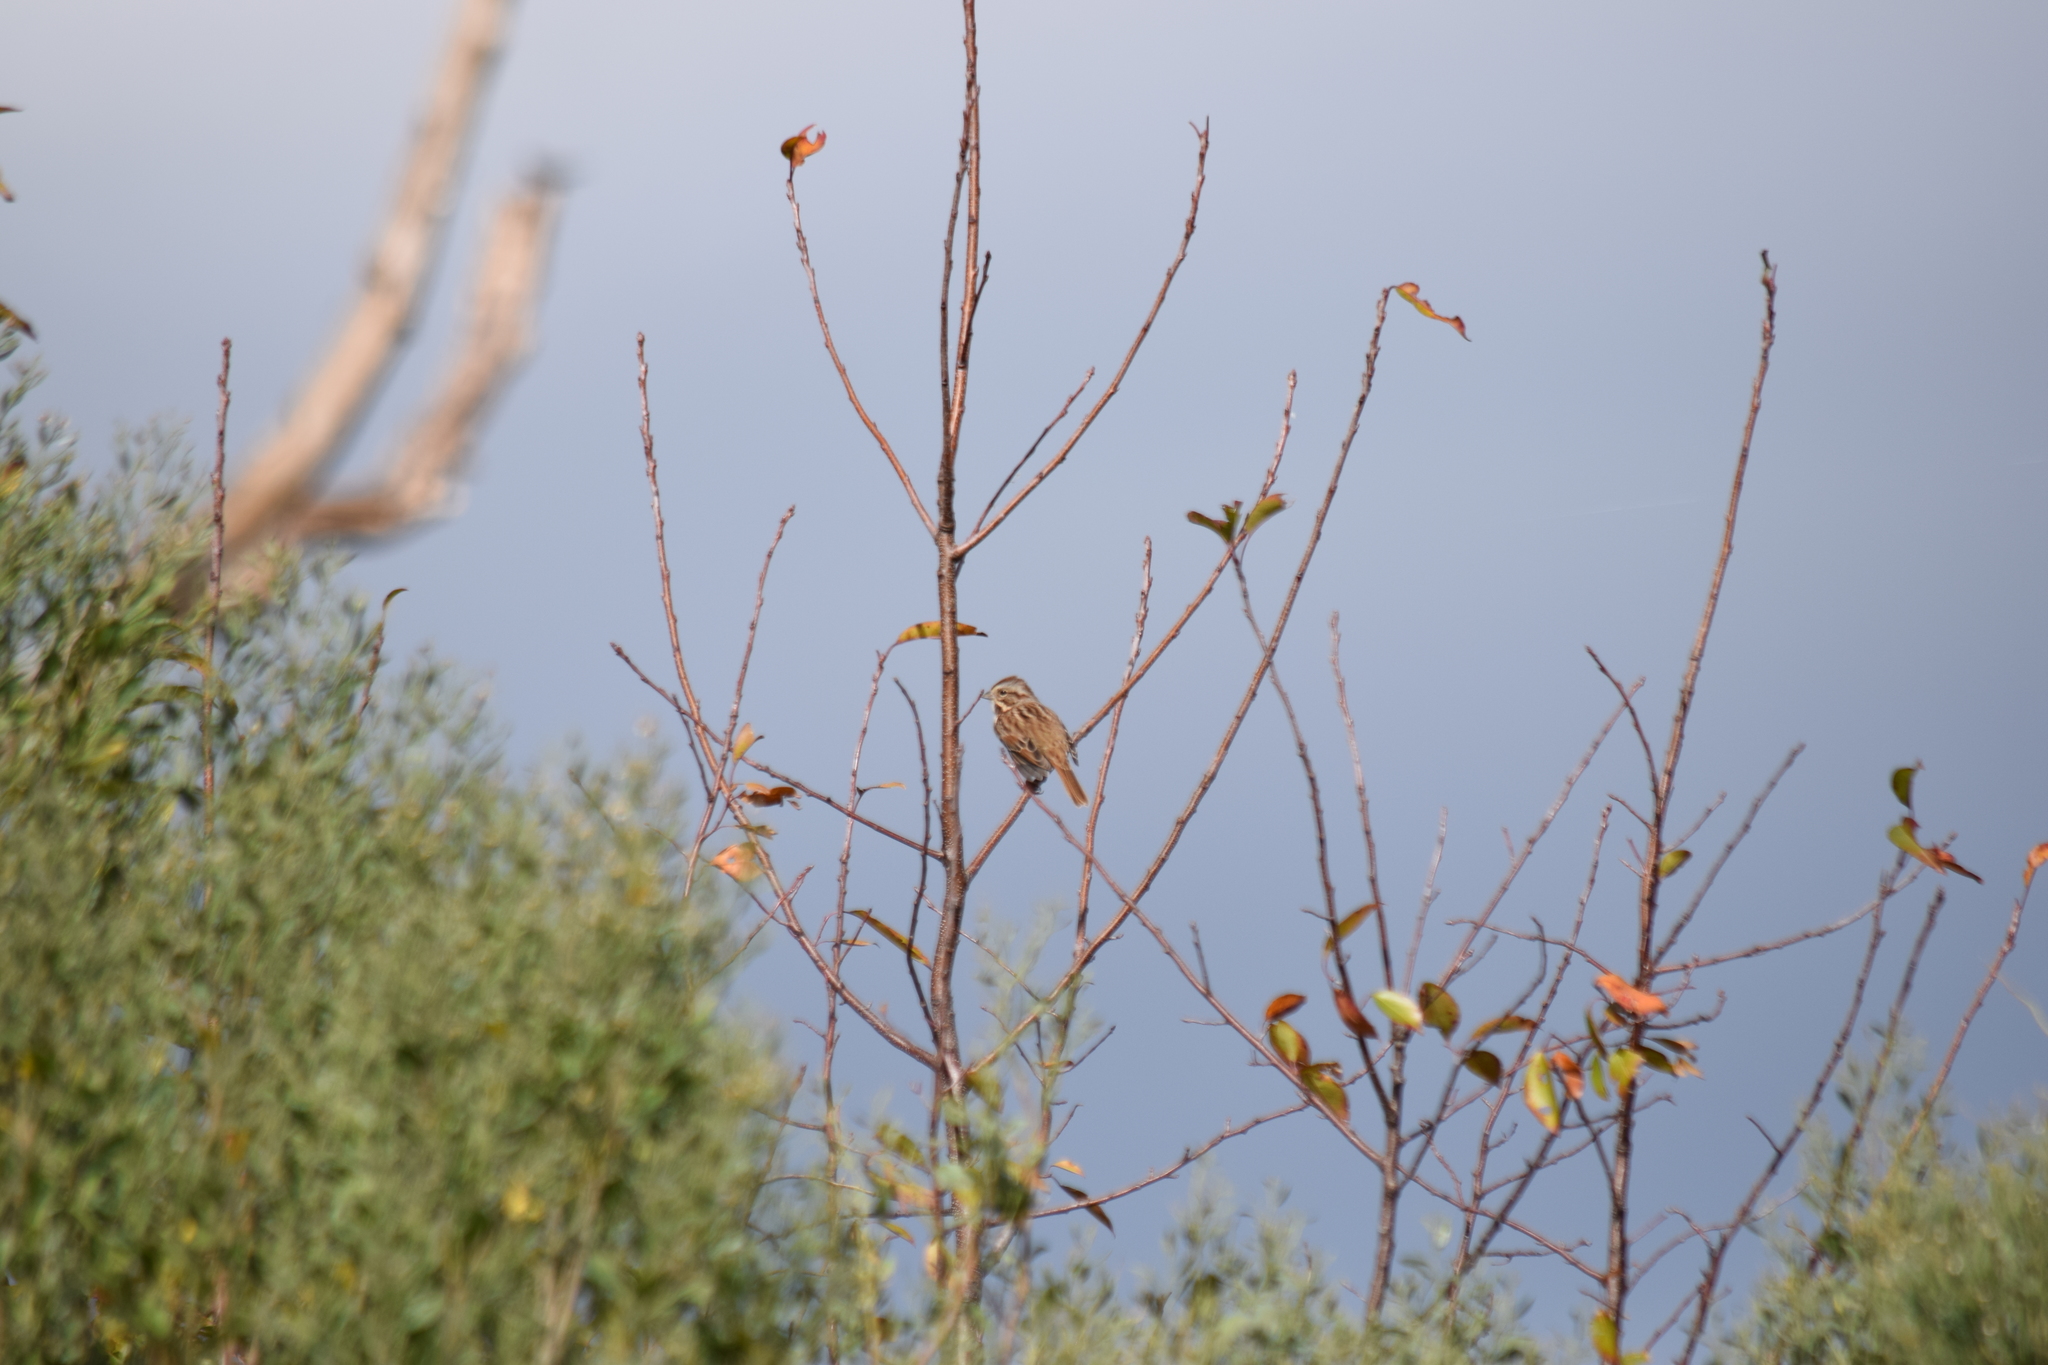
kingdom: Animalia
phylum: Chordata
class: Aves
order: Passeriformes
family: Passerellidae
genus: Melospiza
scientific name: Melospiza melodia
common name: Song sparrow
